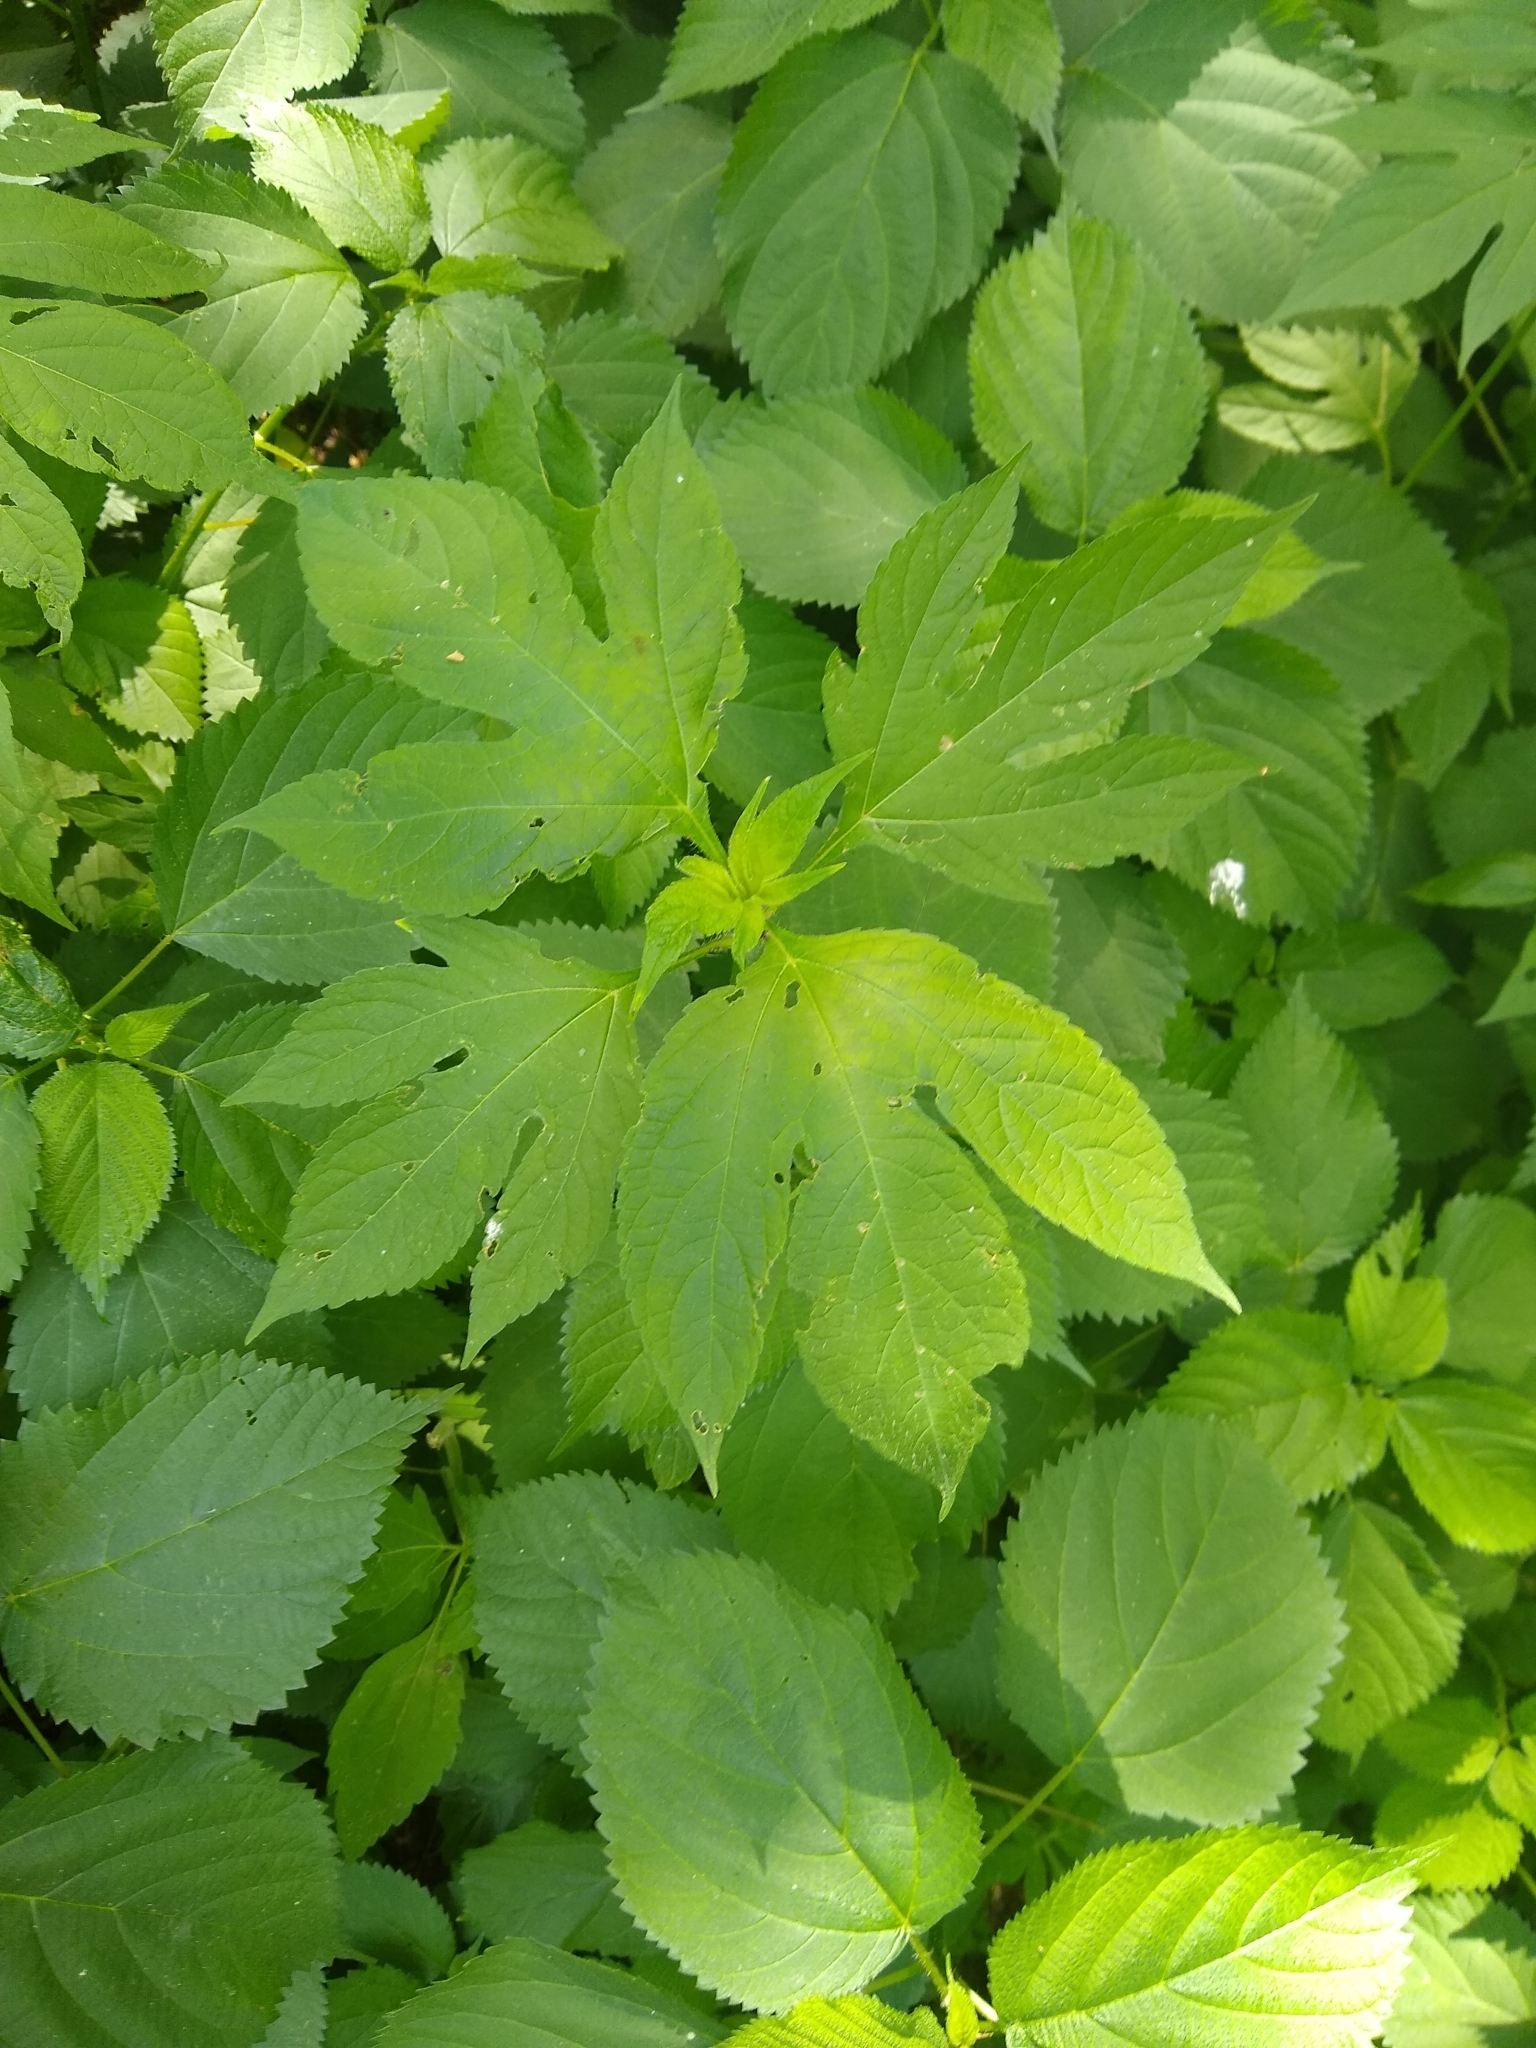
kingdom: Plantae
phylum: Tracheophyta
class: Magnoliopsida
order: Asterales
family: Asteraceae
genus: Ambrosia
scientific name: Ambrosia trifida
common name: Giant ragweed
